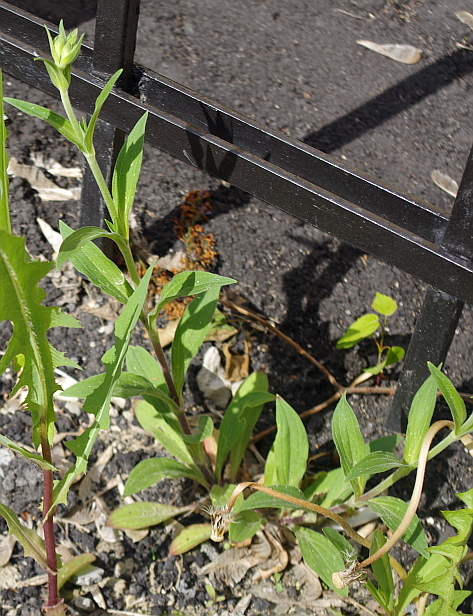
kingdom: Plantae
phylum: Tracheophyta
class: Magnoliopsida
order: Caryophyllales
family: Caryophyllaceae
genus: Silene
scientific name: Silene latifolia
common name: White campion
